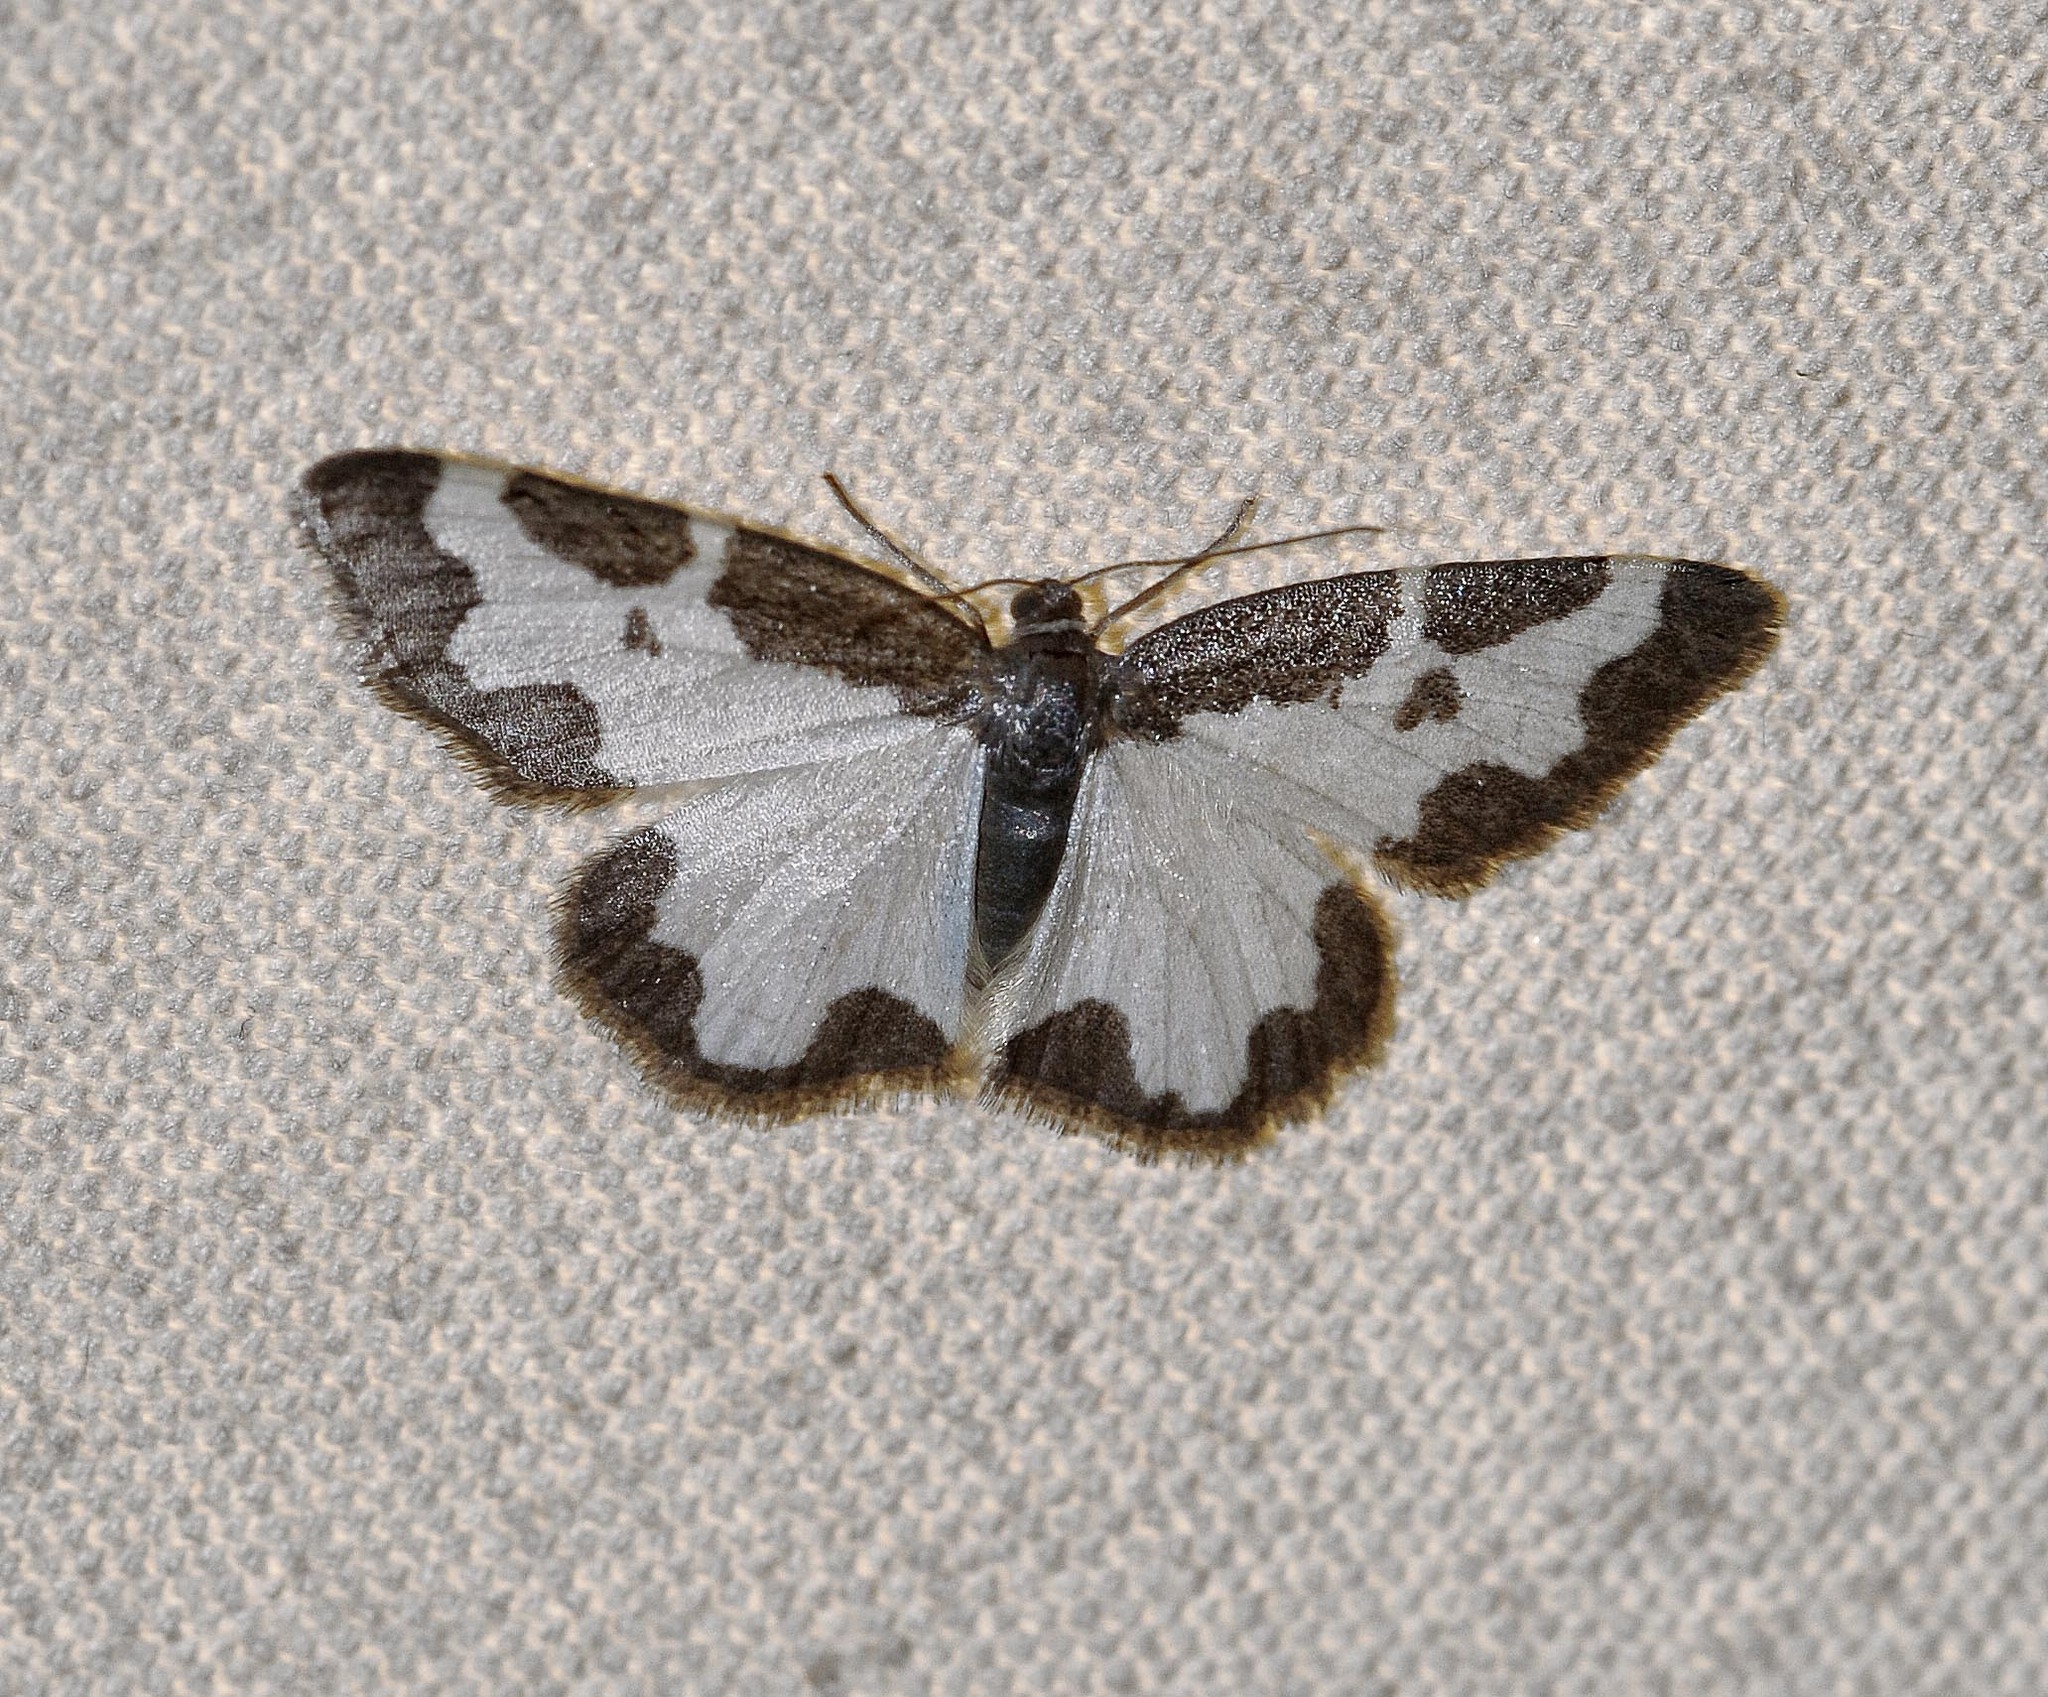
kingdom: Animalia
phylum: Arthropoda
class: Insecta
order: Lepidoptera
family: Geometridae
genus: Lomaspilis
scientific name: Lomaspilis marginata
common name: Clouded border
